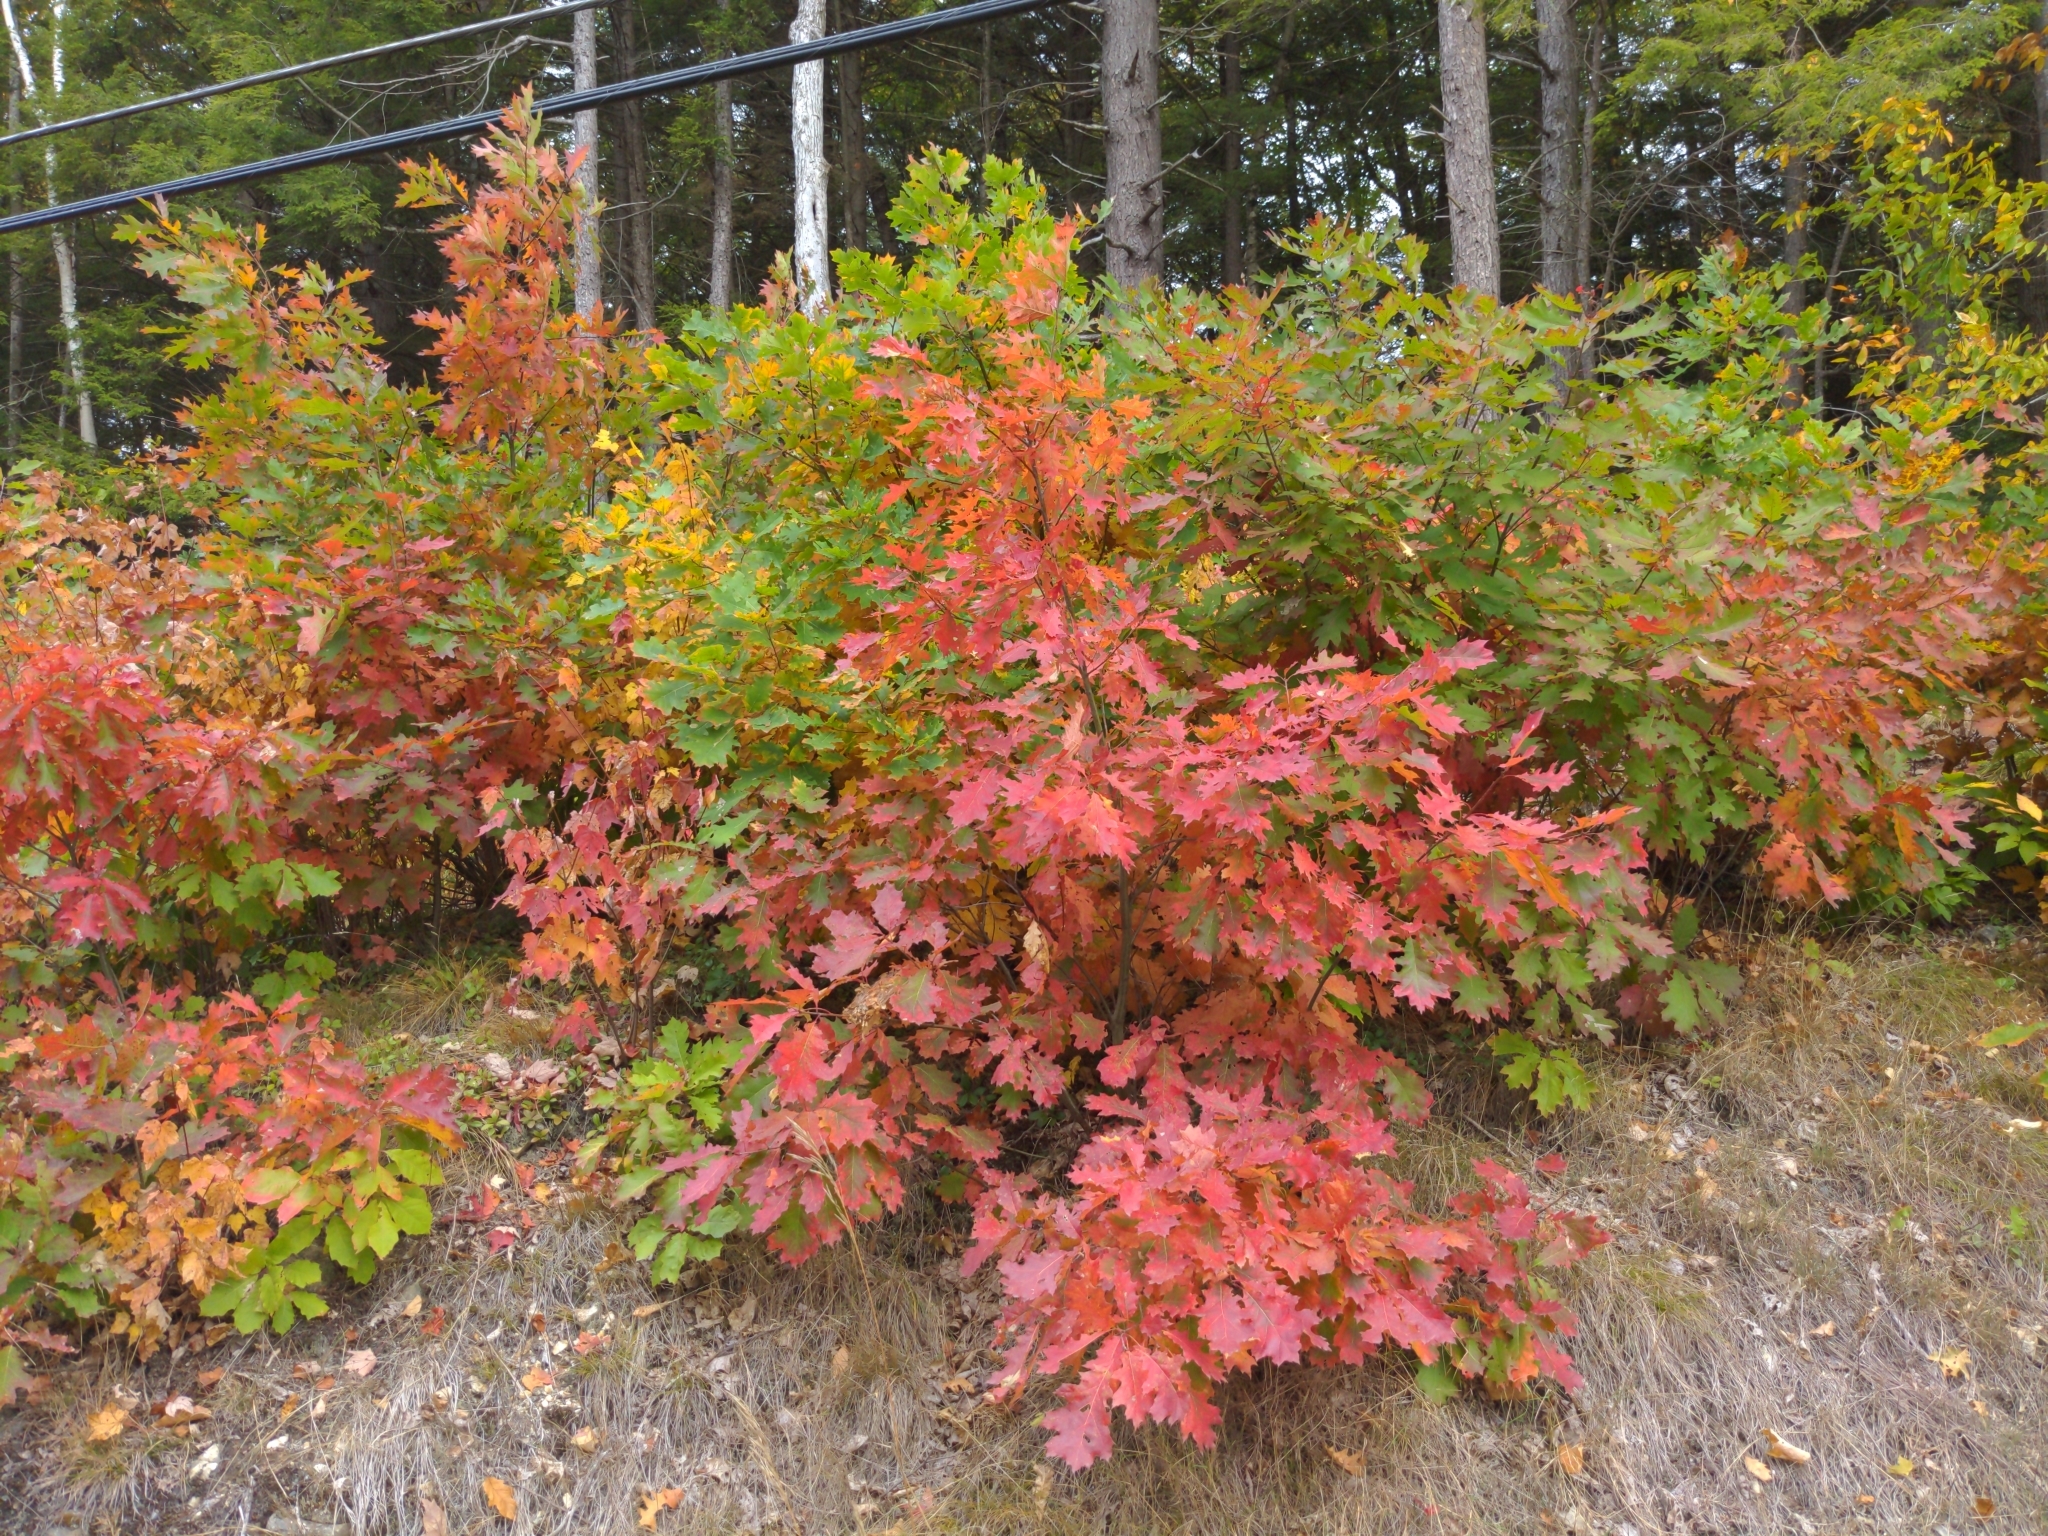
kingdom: Plantae
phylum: Tracheophyta
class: Magnoliopsida
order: Fagales
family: Fagaceae
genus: Quercus
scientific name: Quercus rubra
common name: Red oak
